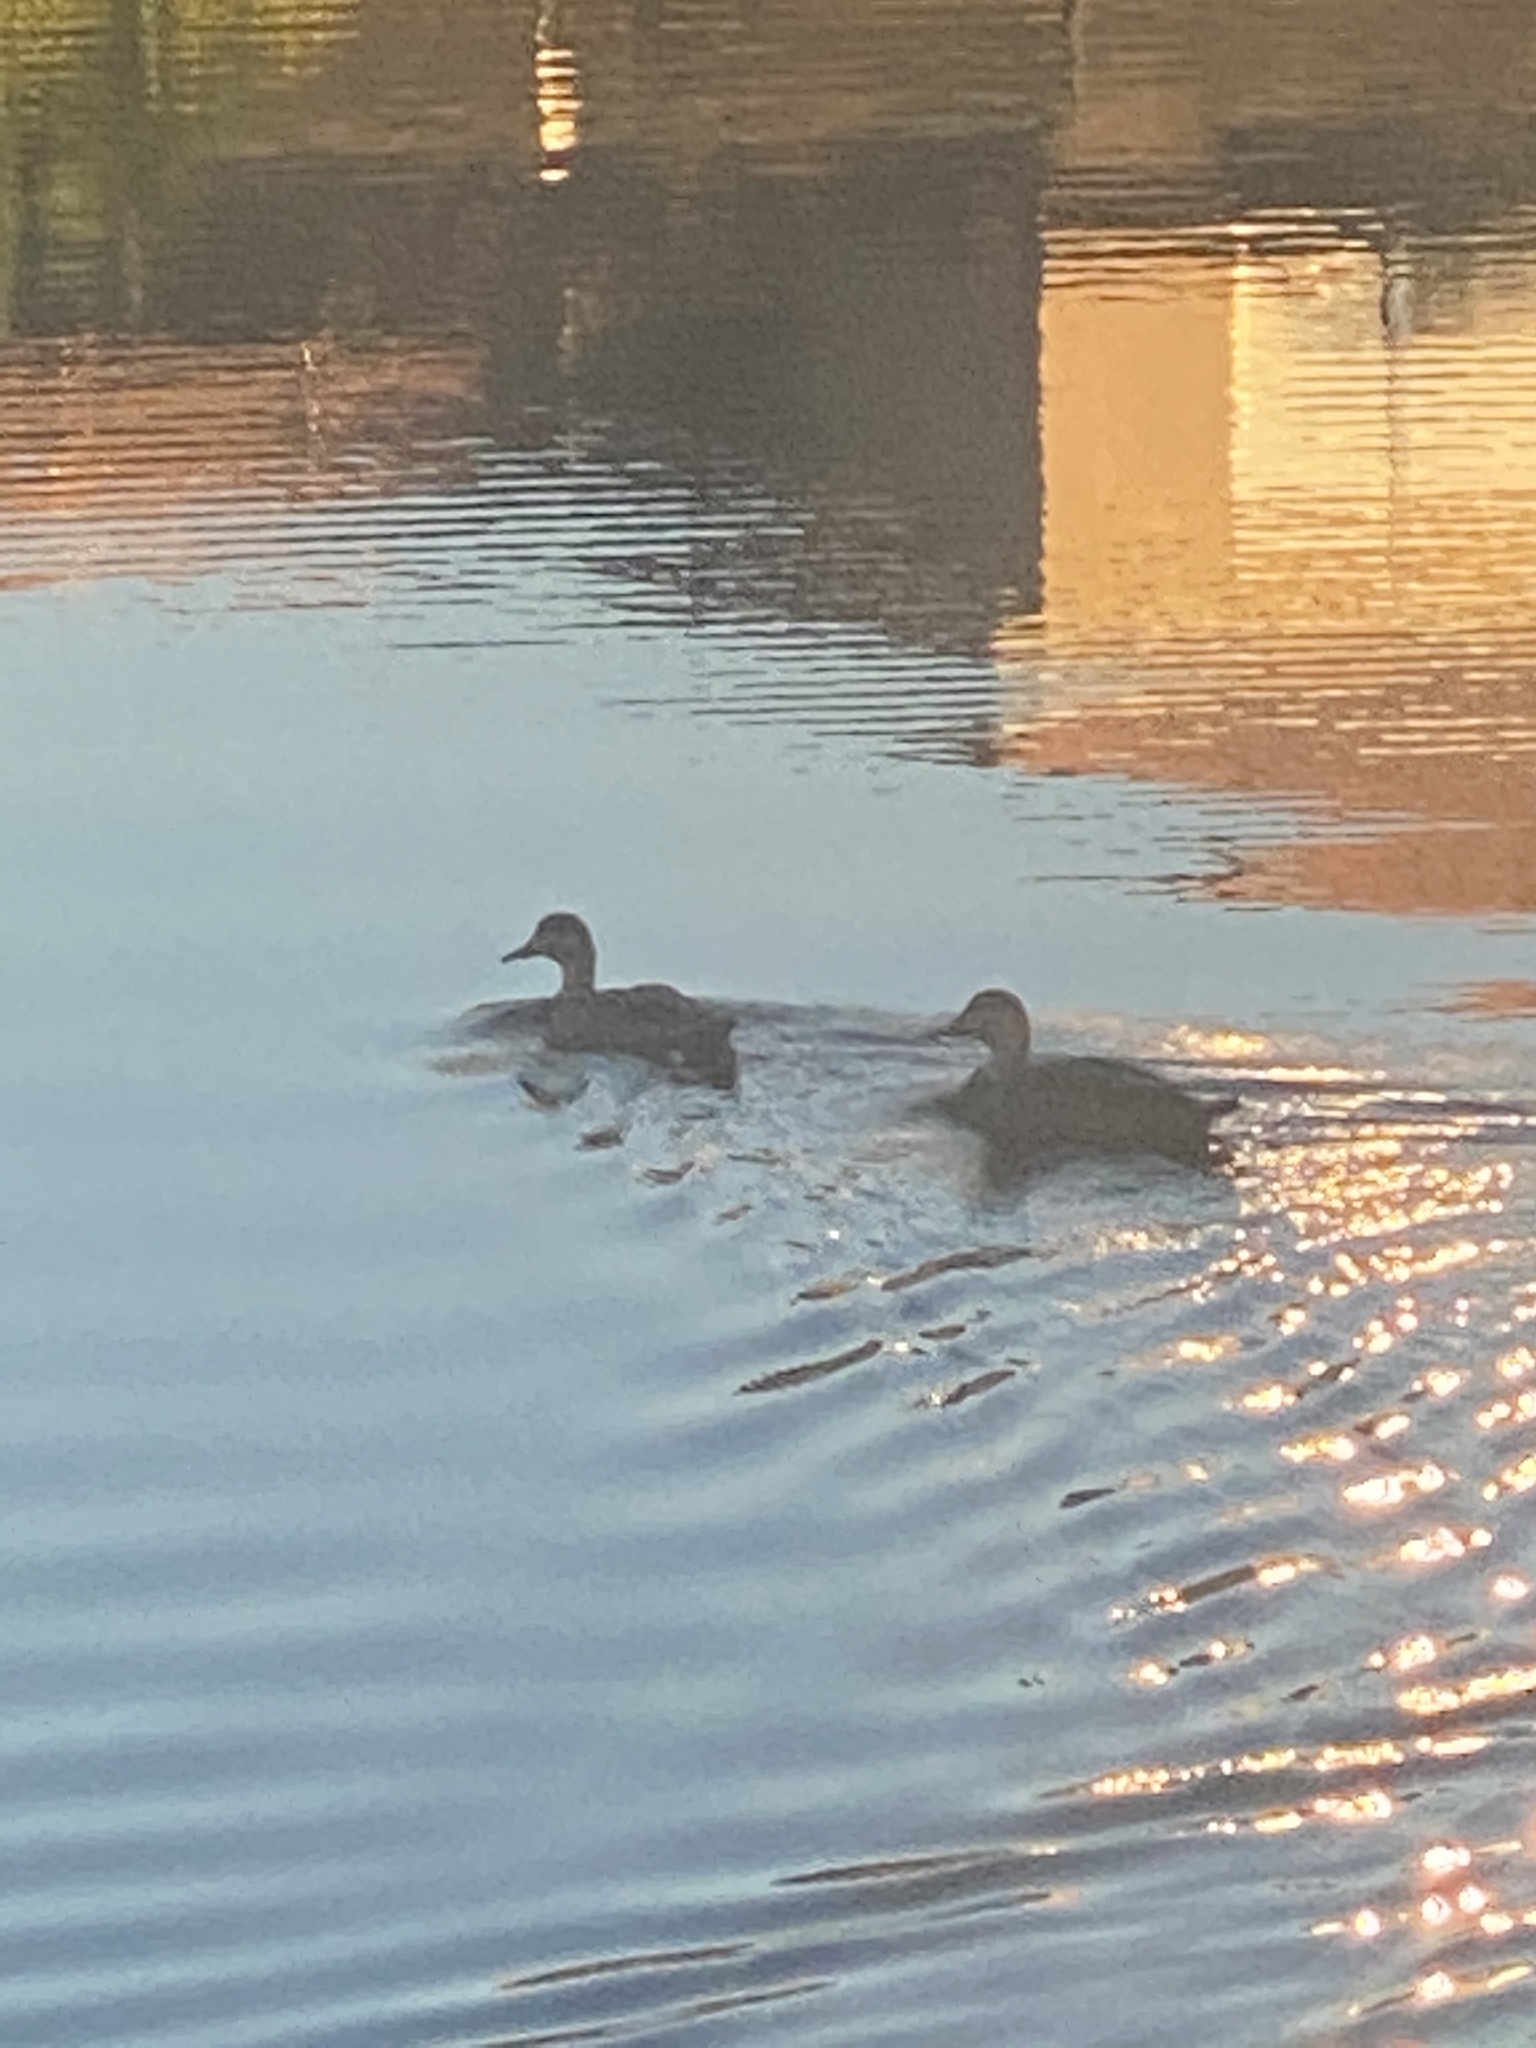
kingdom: Animalia
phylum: Chordata
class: Aves
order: Anseriformes
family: Anatidae
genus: Anas
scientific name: Anas
